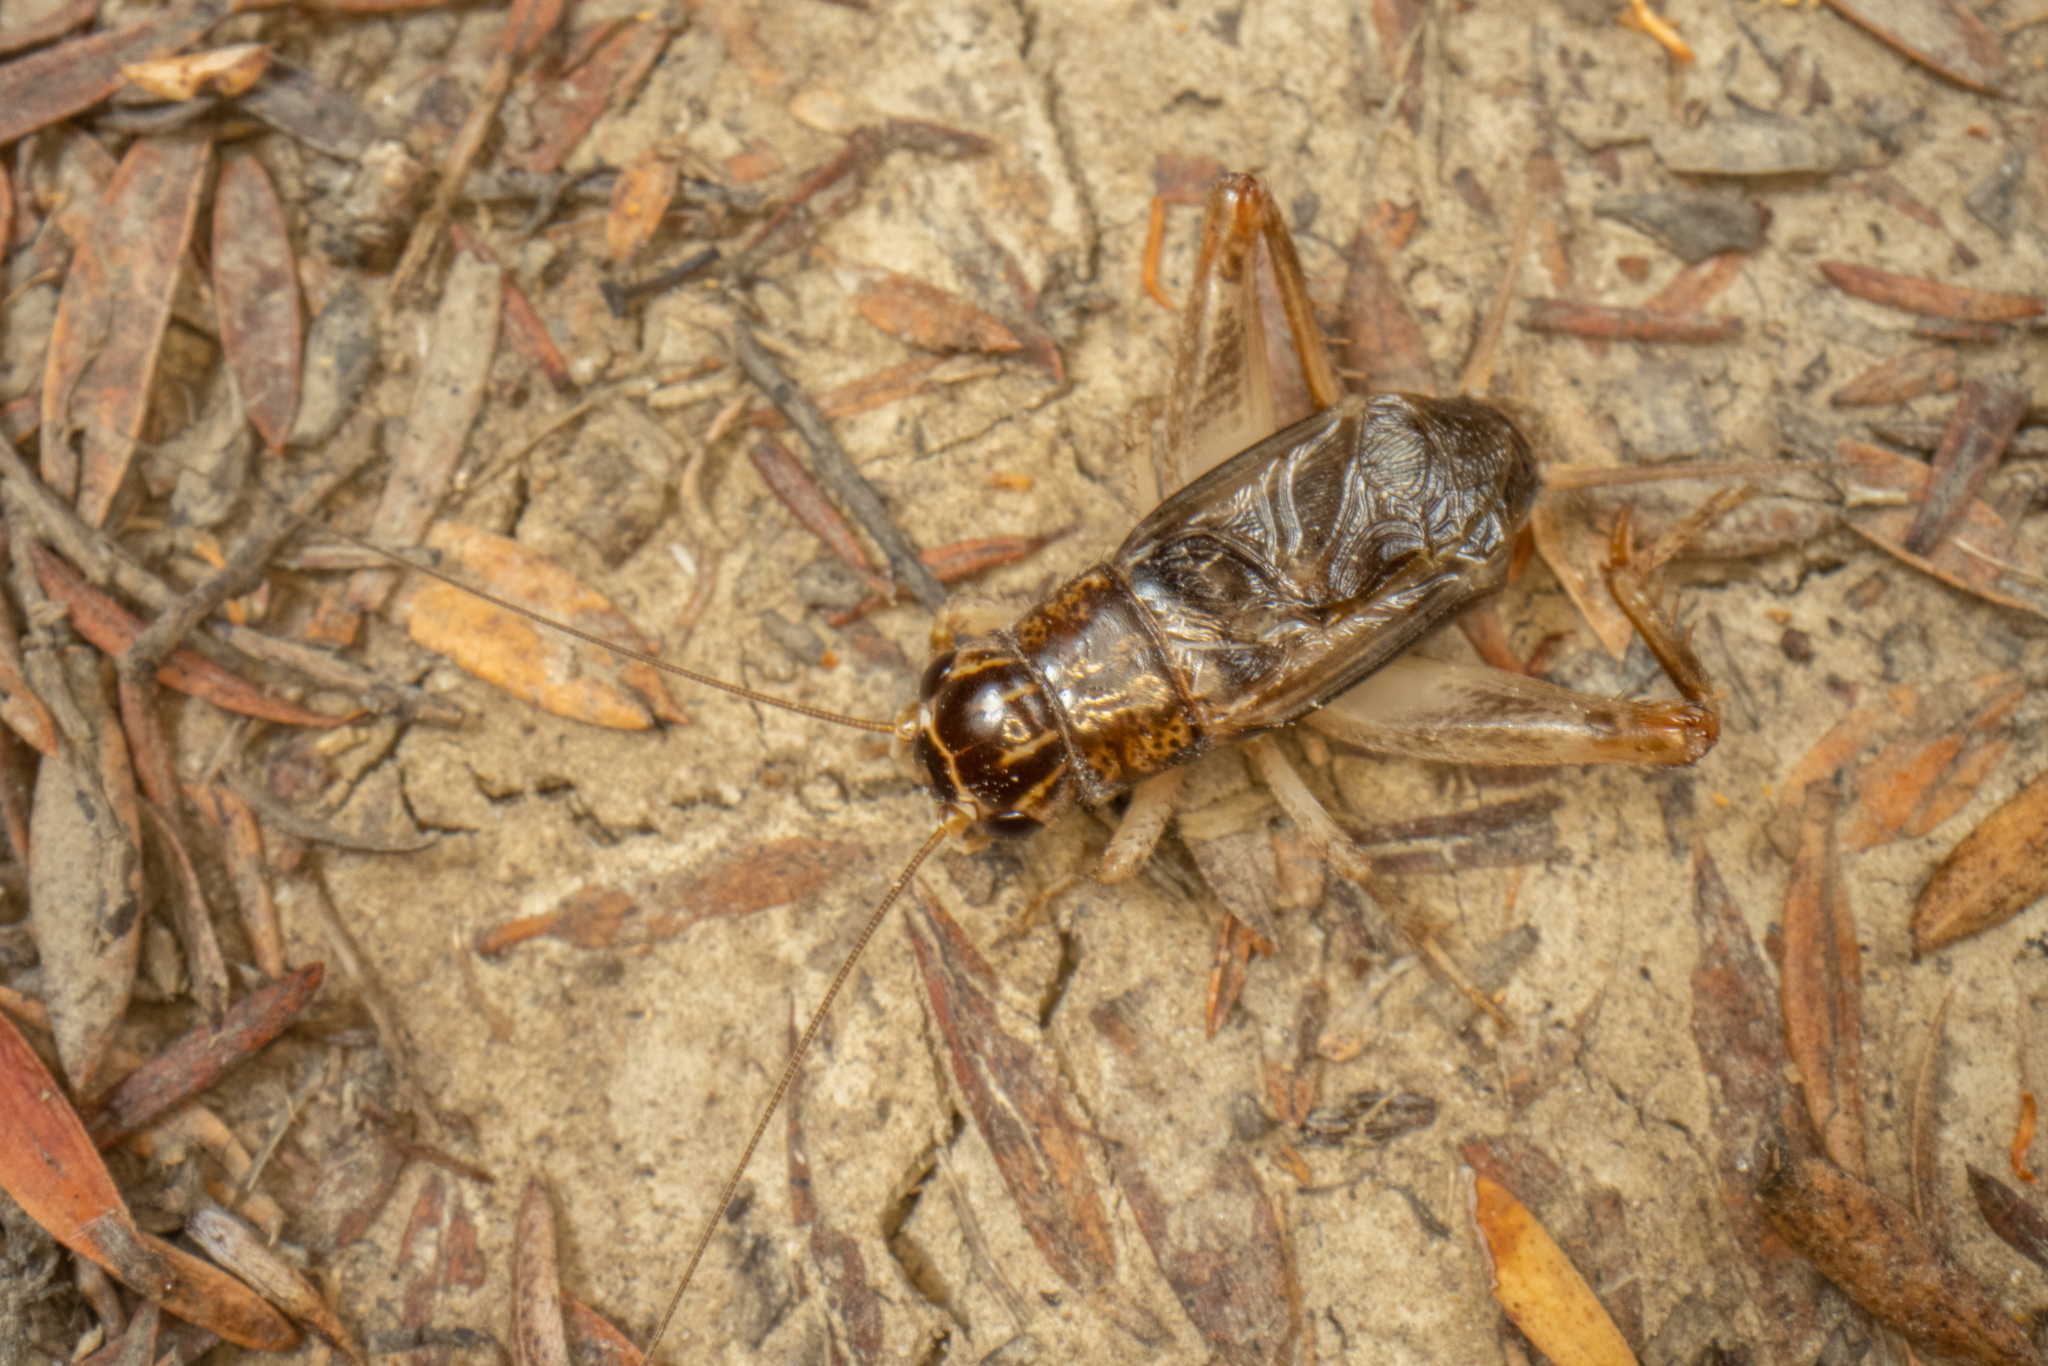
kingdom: Animalia
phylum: Arthropoda
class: Insecta
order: Orthoptera
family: Gryllidae
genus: Lepidogryllus
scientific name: Lepidogryllus parvulus
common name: Fast-chirping field crickets
